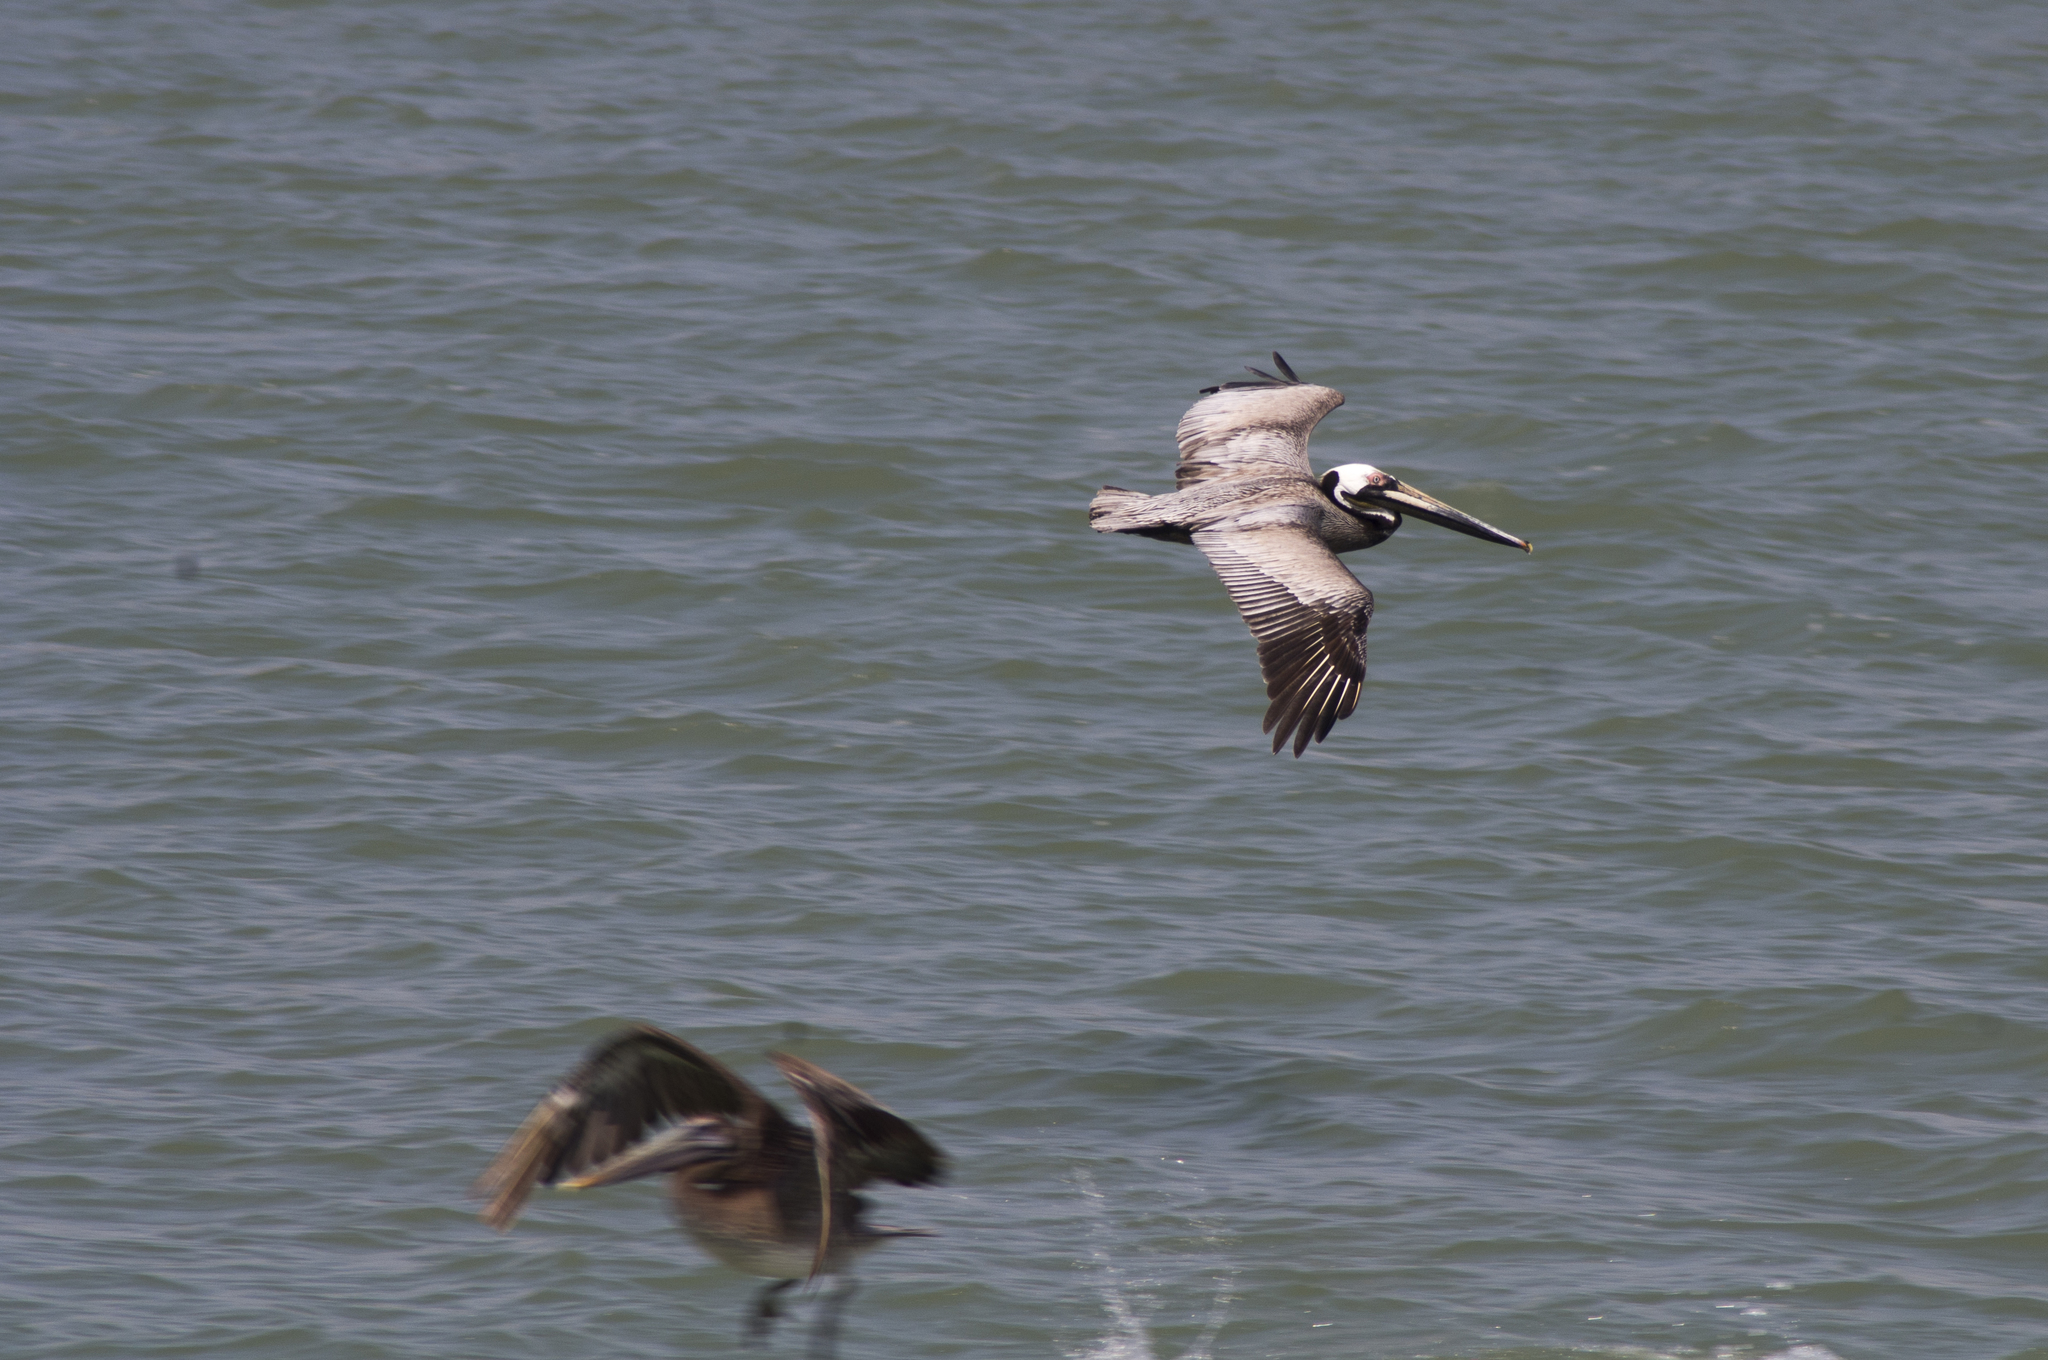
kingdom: Animalia
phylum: Chordata
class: Aves
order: Pelecaniformes
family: Pelecanidae
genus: Pelecanus
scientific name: Pelecanus occidentalis
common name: Brown pelican
